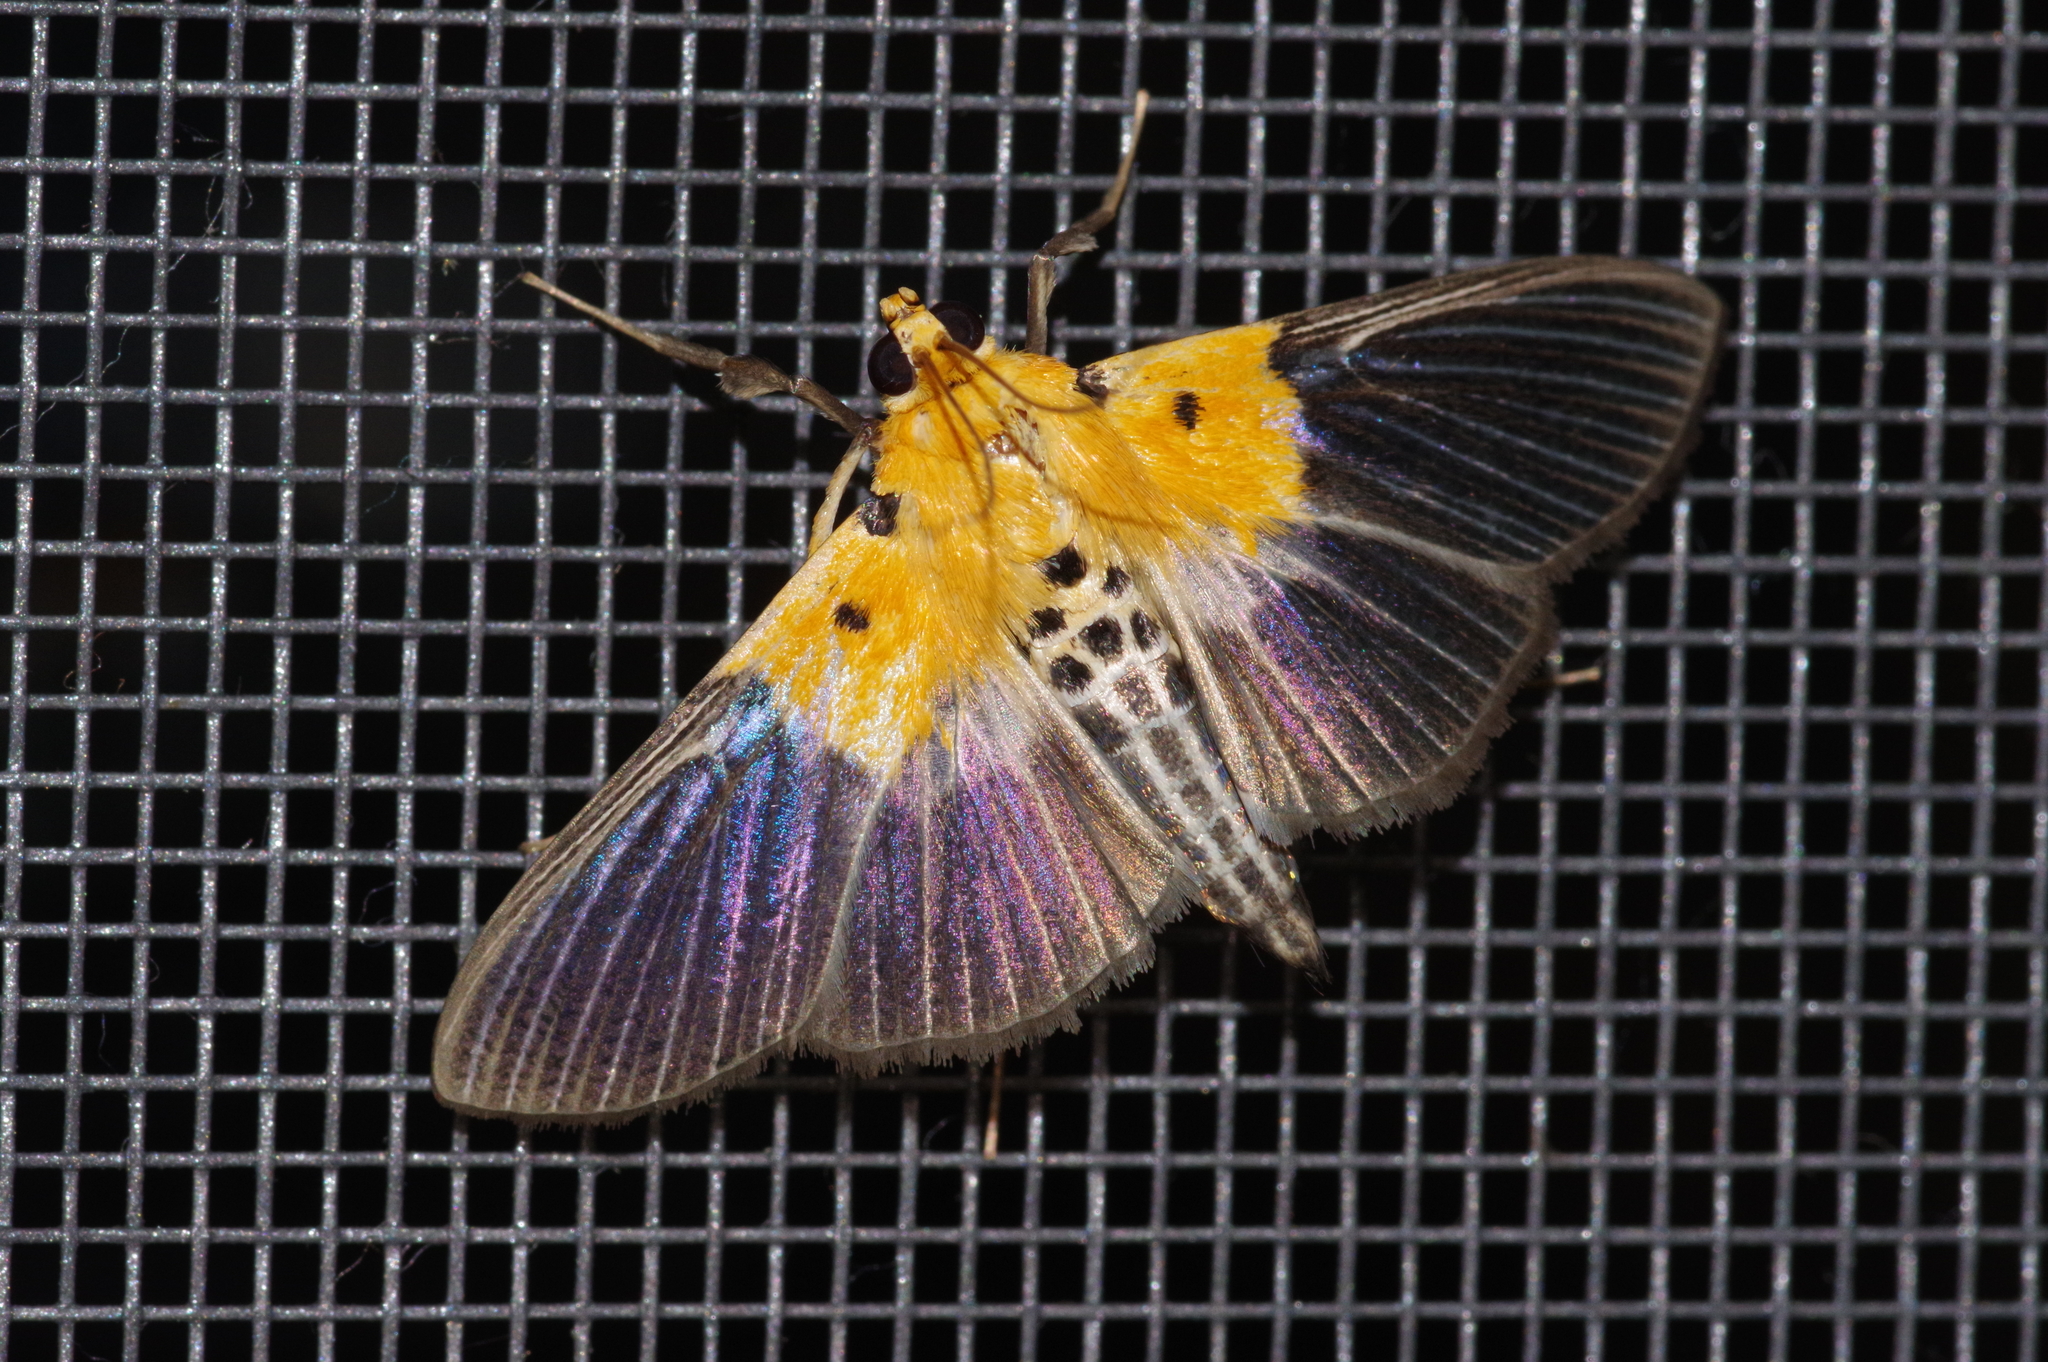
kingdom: Animalia
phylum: Arthropoda
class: Insecta
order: Lepidoptera
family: Crambidae
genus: Nevrina
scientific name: Nevrina procopia
